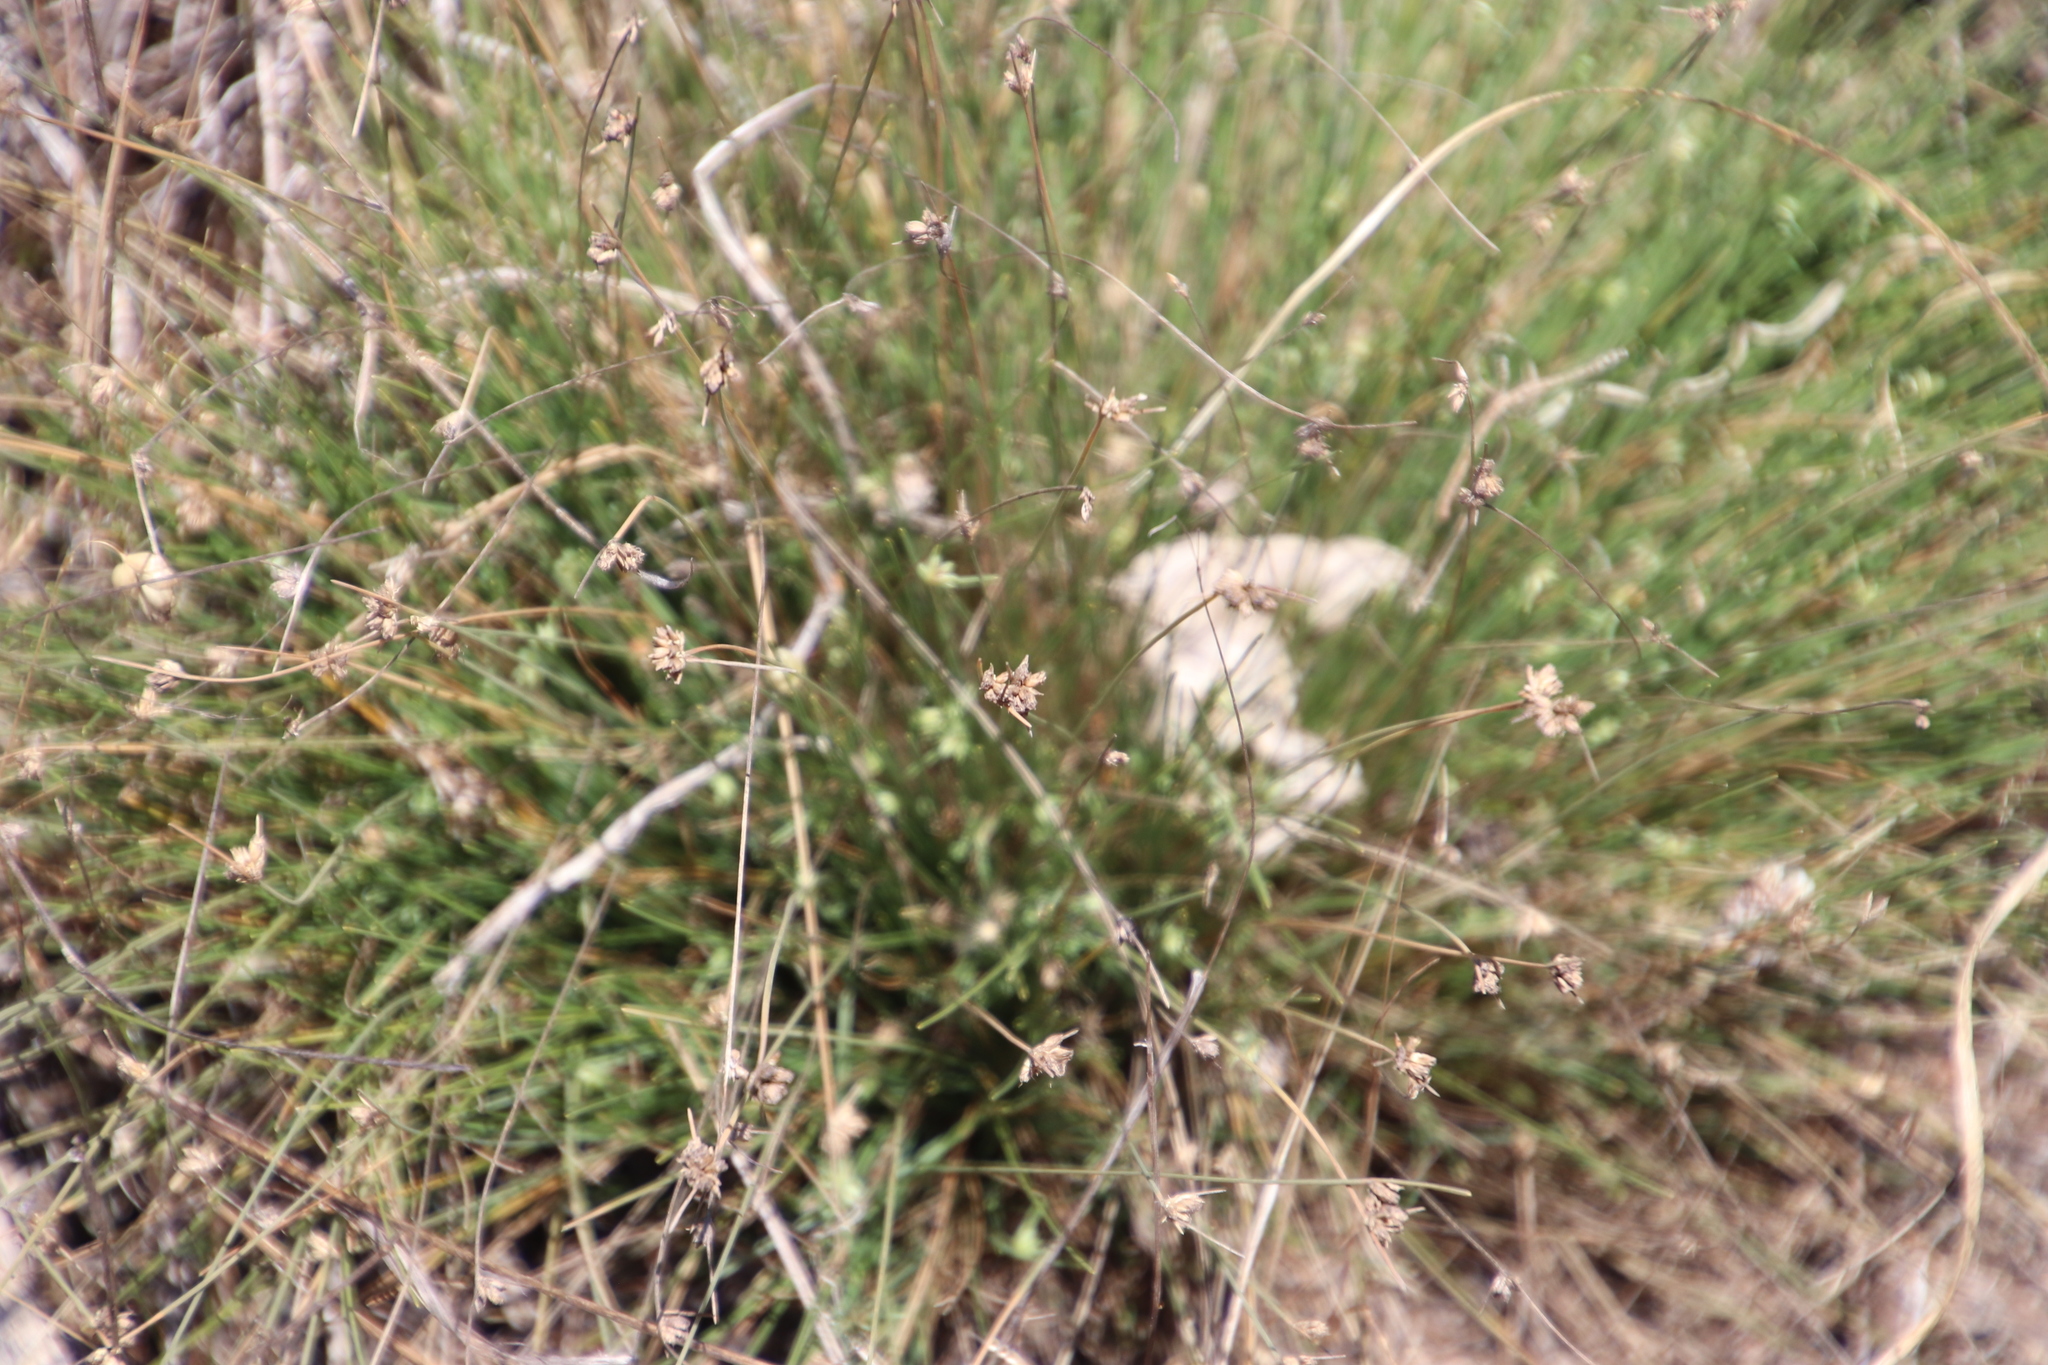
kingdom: Plantae
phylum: Tracheophyta
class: Liliopsida
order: Poales
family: Cyperaceae
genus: Ficinia
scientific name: Ficinia oligantha
